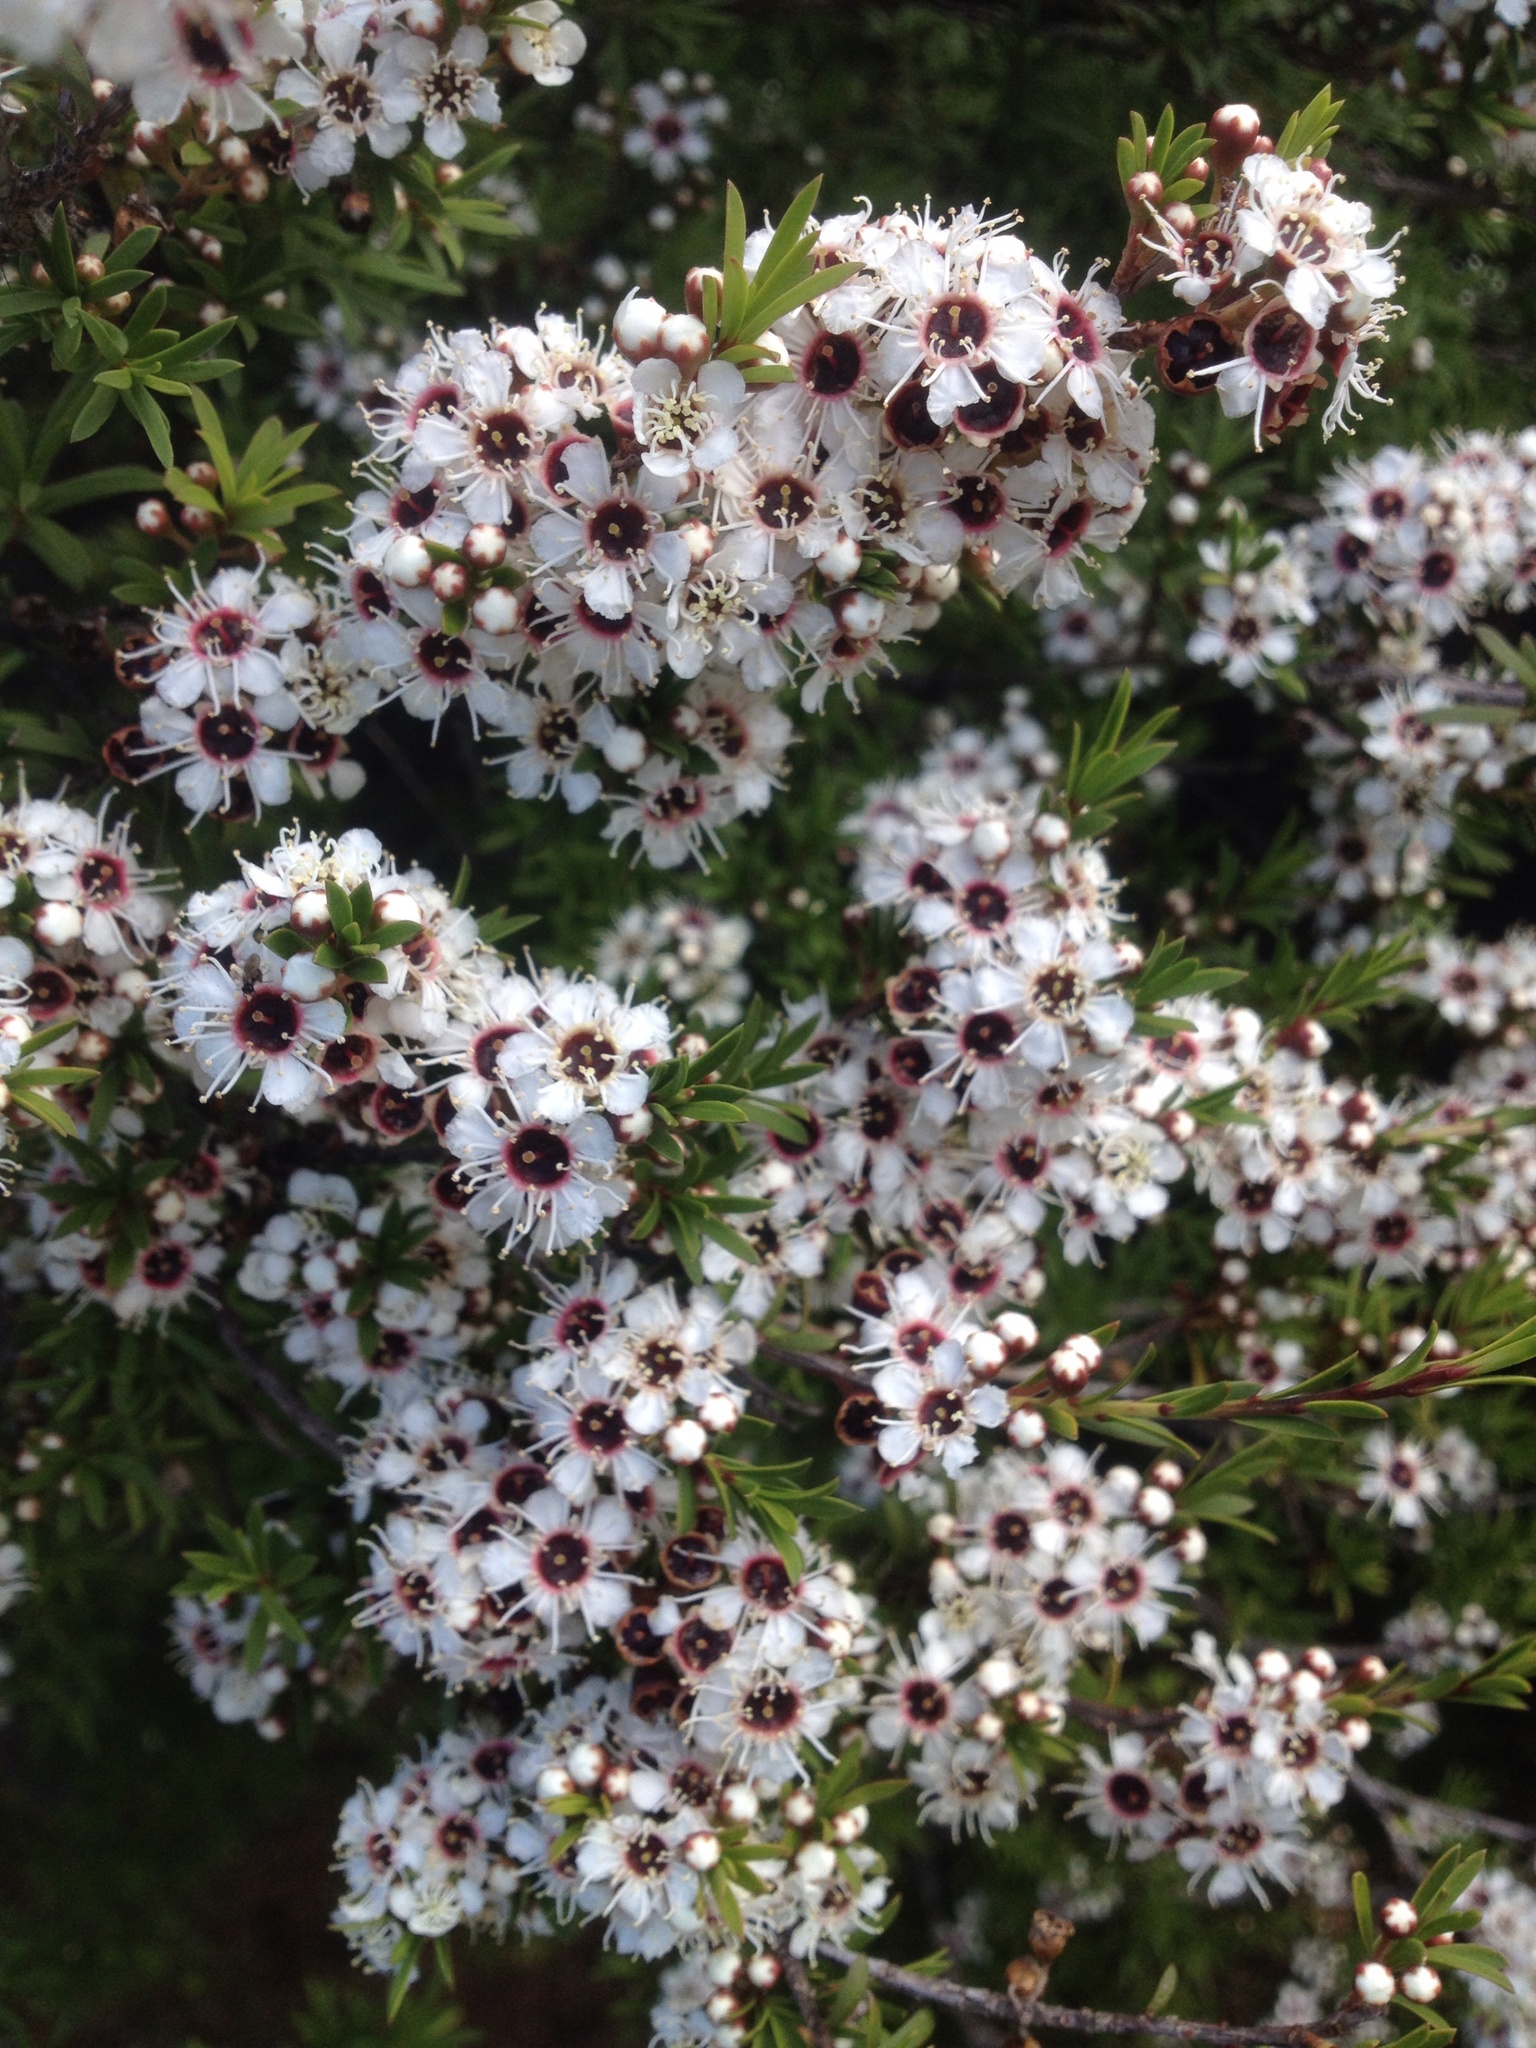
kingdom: Plantae
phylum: Tracheophyta
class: Magnoliopsida
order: Myrtales
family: Myrtaceae
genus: Kunzea
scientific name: Kunzea robusta
